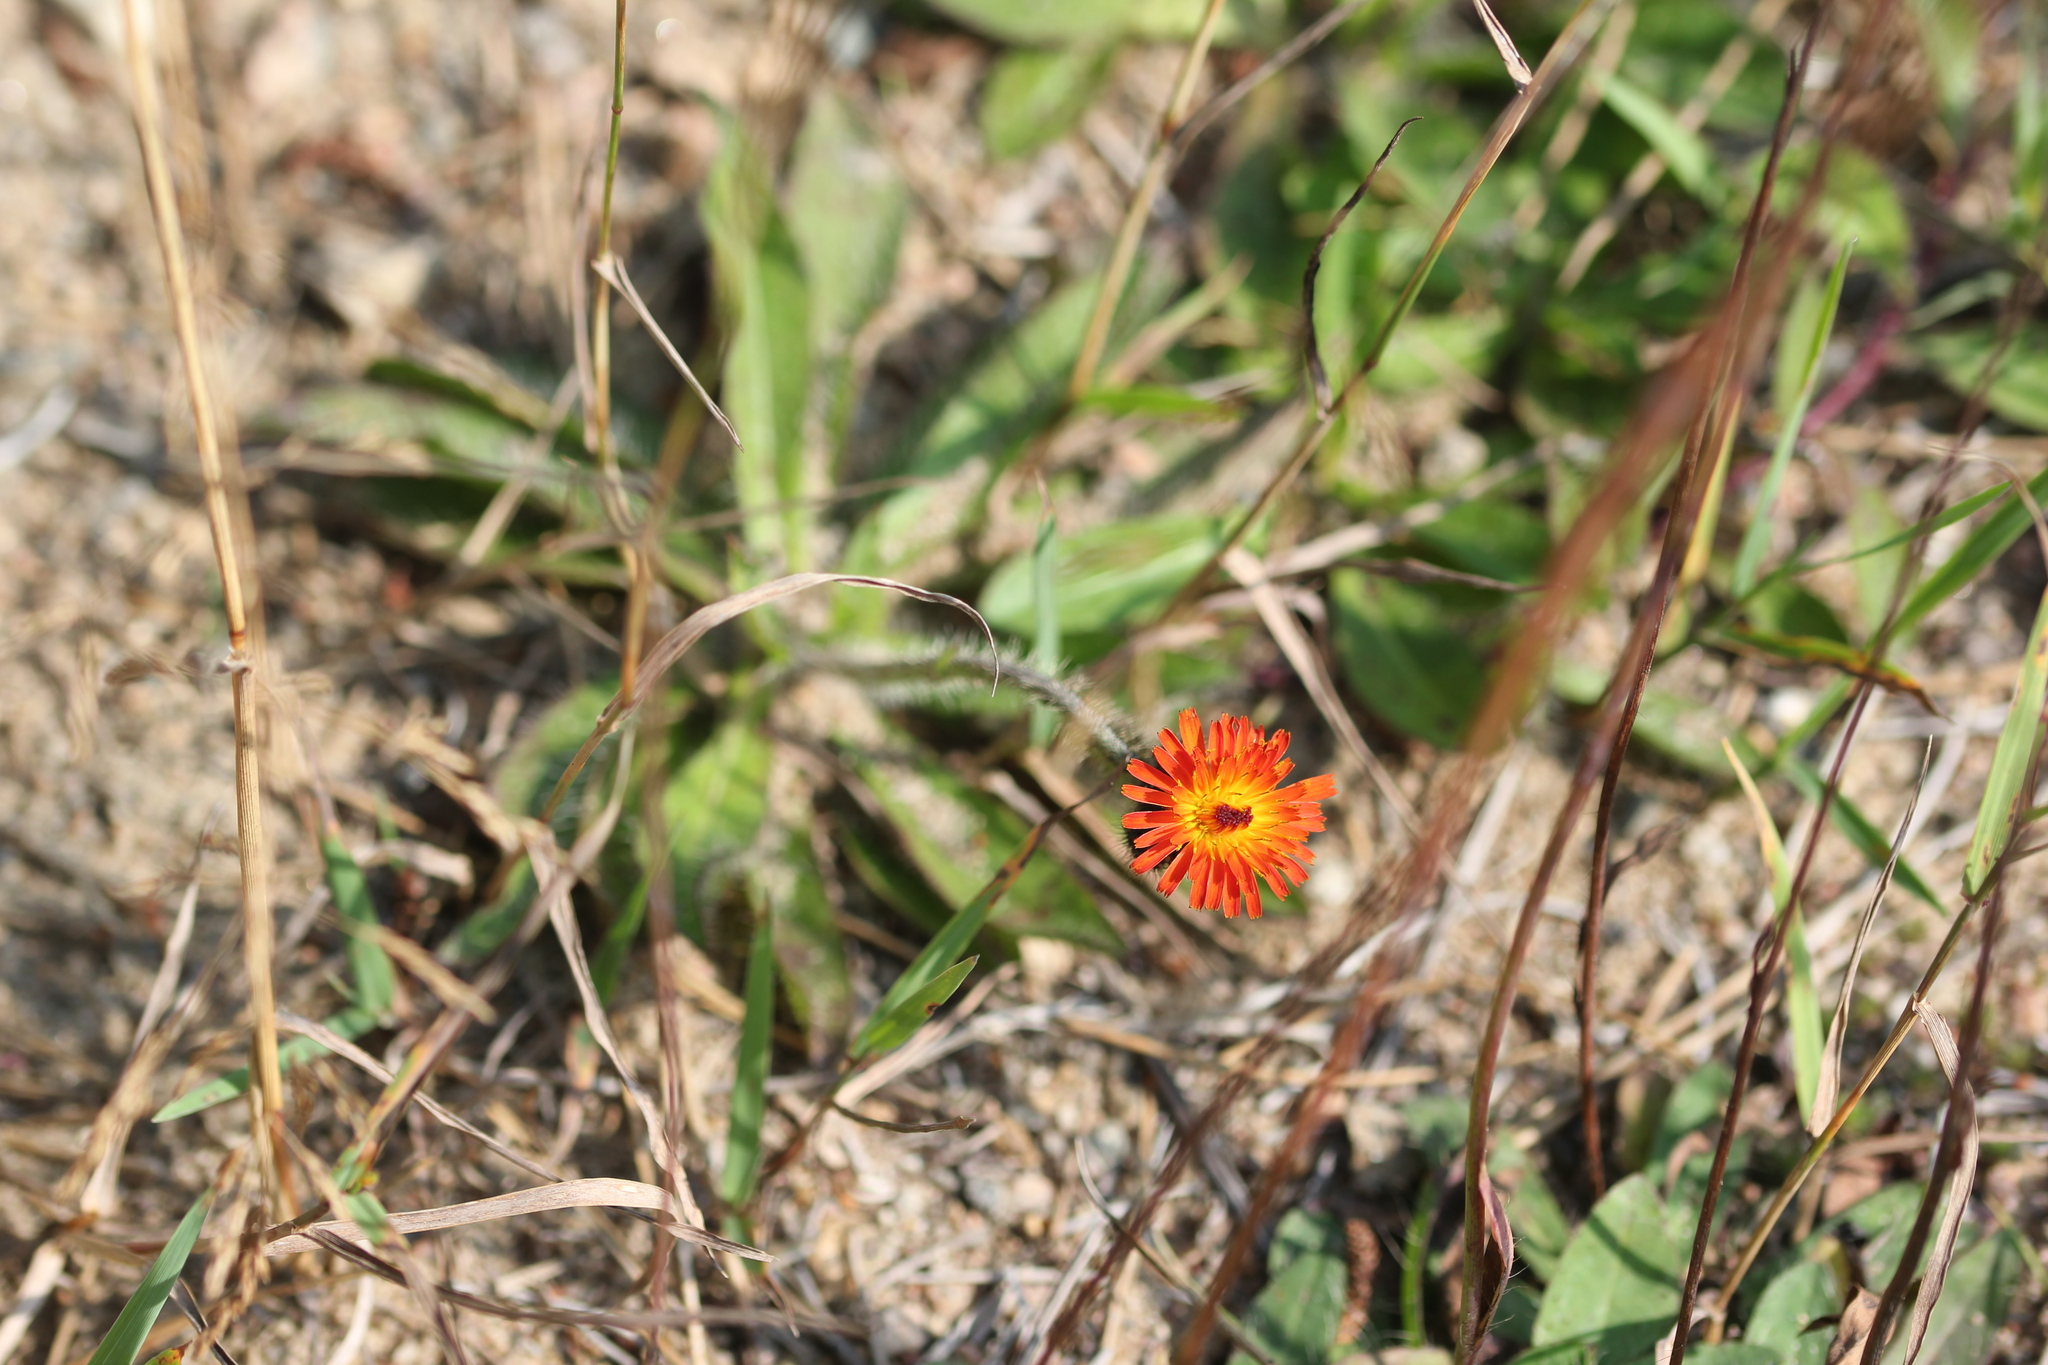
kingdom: Plantae
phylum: Tracheophyta
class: Magnoliopsida
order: Asterales
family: Asteraceae
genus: Pilosella
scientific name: Pilosella aurantiaca
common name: Fox-and-cubs
